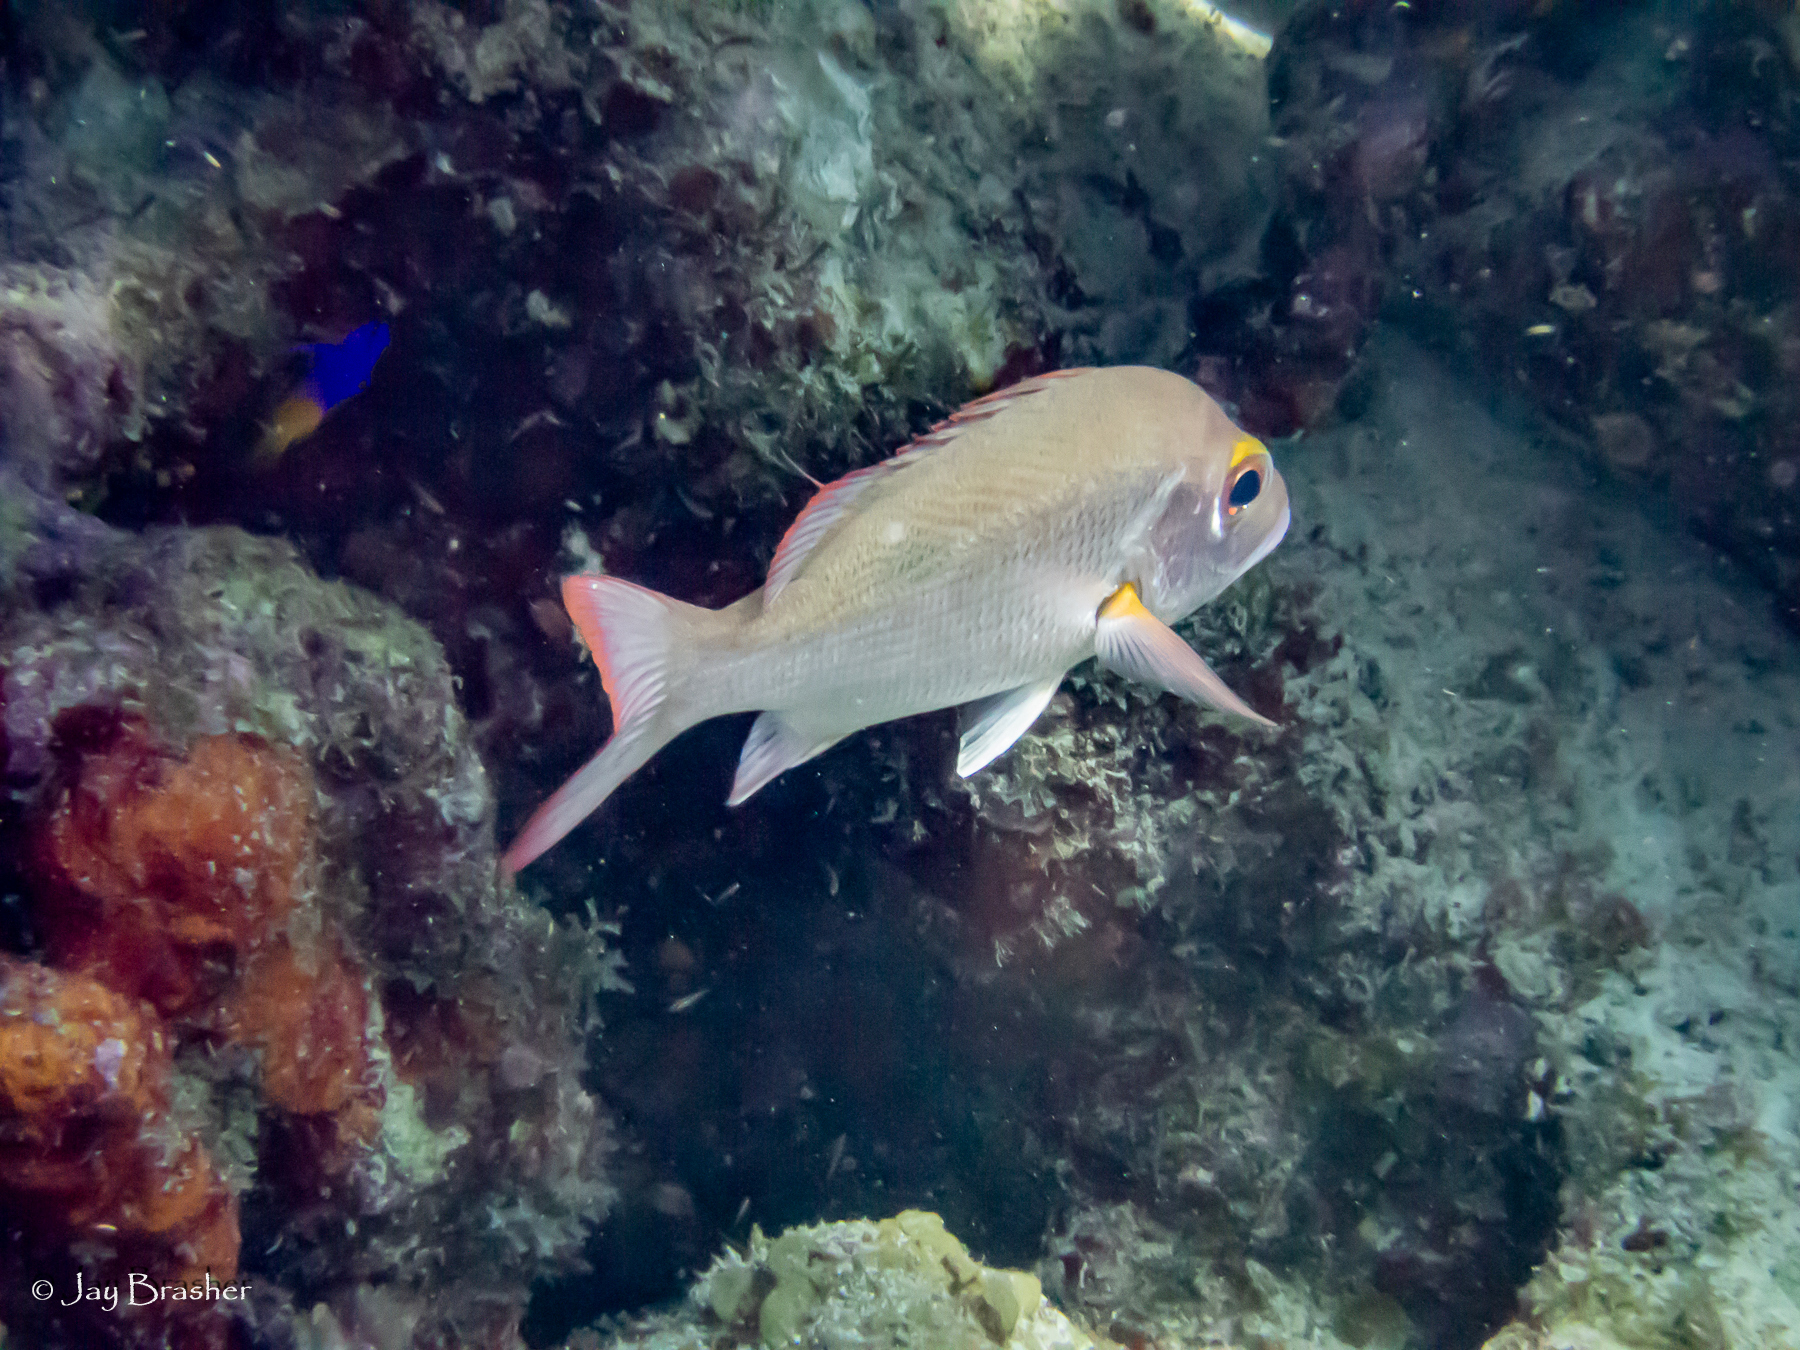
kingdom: Animalia
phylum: Chordata
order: Perciformes
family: Lutjanidae
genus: Lutjanus
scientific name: Lutjanus mahogoni
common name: Spot snapper
